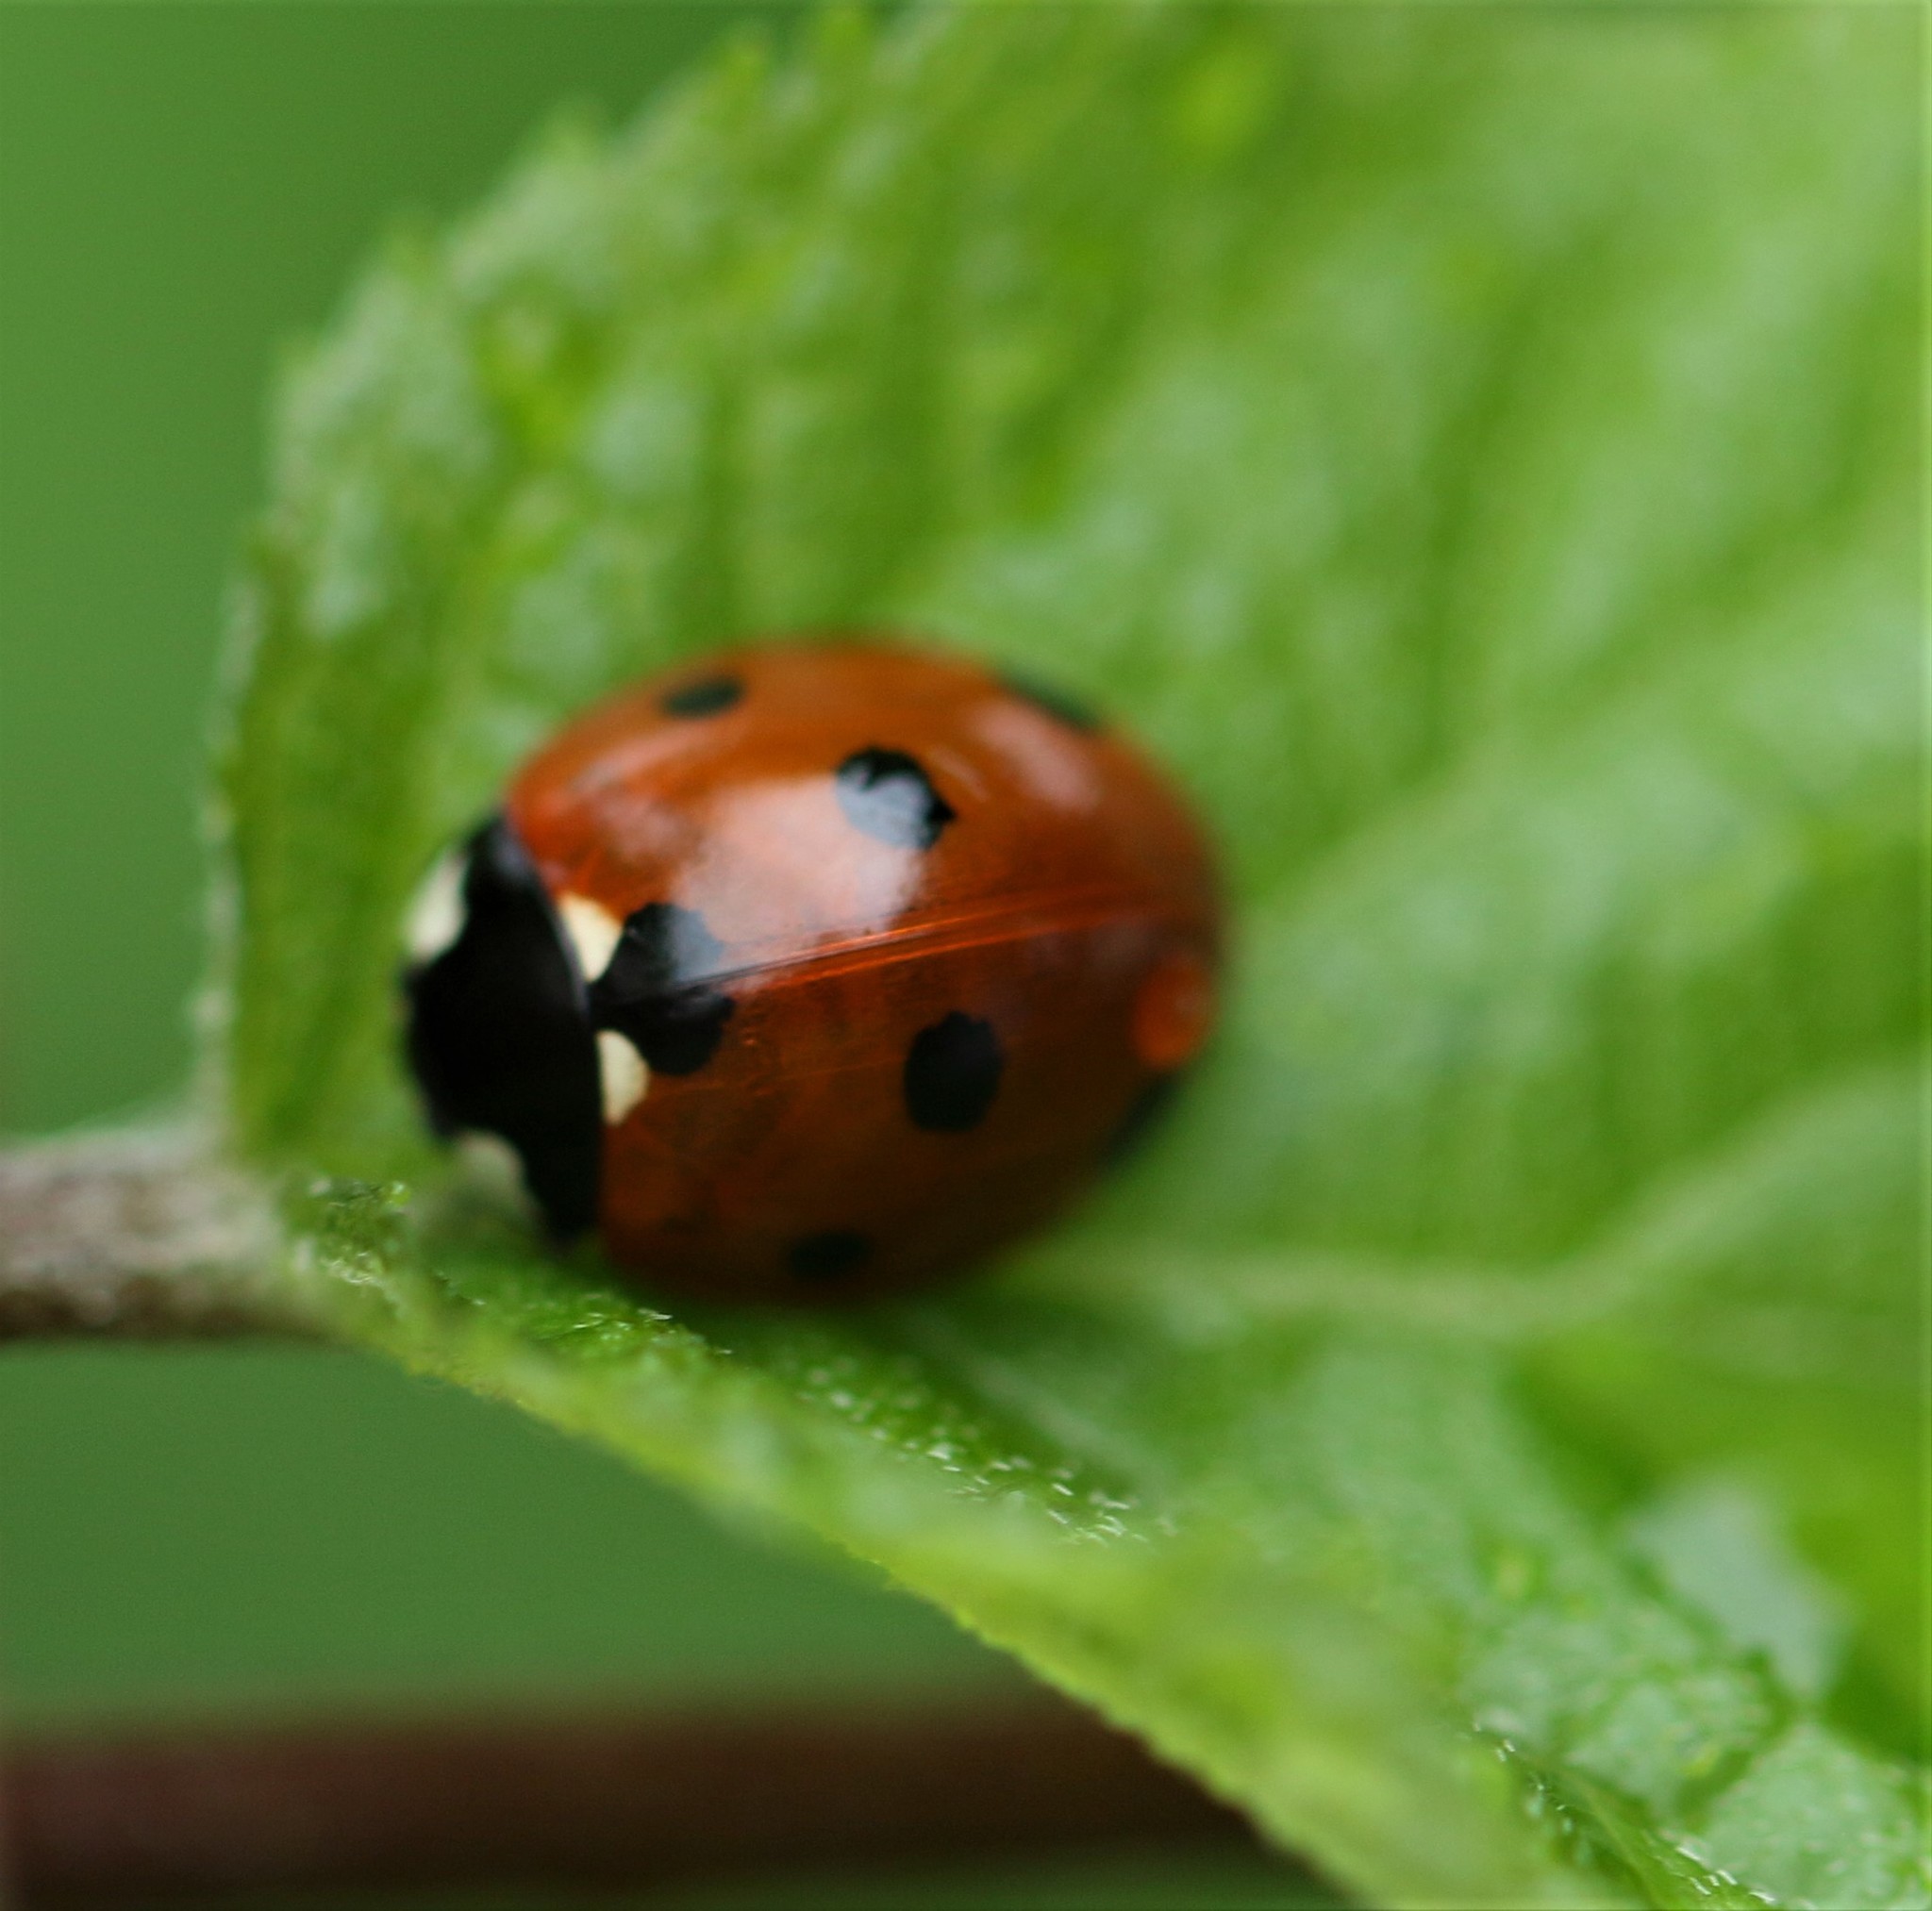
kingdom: Animalia
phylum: Arthropoda
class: Insecta
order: Coleoptera
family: Coccinellidae
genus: Coccinella
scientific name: Coccinella septempunctata
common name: Sevenspotted lady beetle
